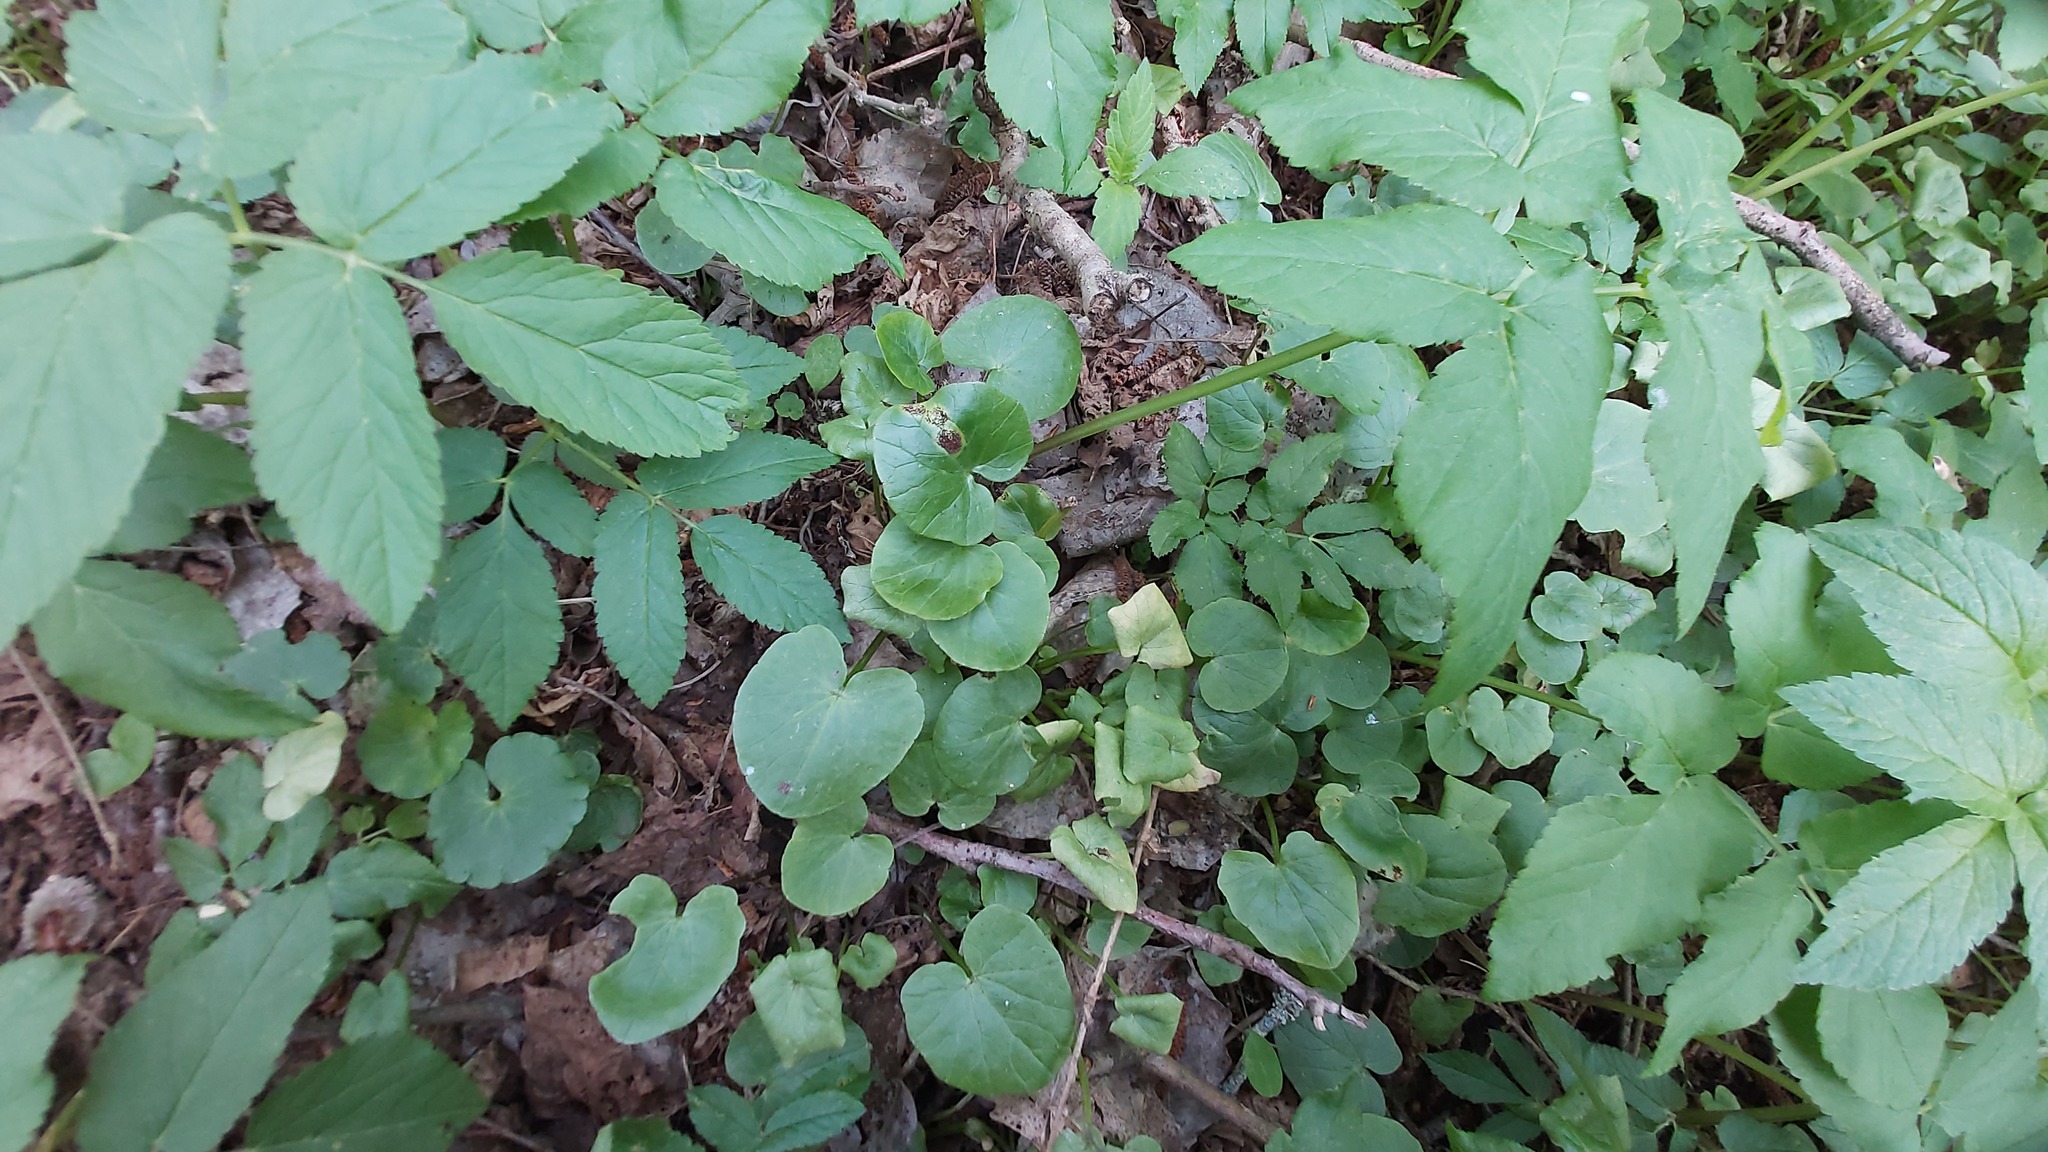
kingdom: Fungi
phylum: Basidiomycota
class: Pucciniomycetes
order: Pucciniales
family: Pucciniaceae
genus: Uromyces
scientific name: Uromyces ficariae
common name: Bitter chocolate rust
